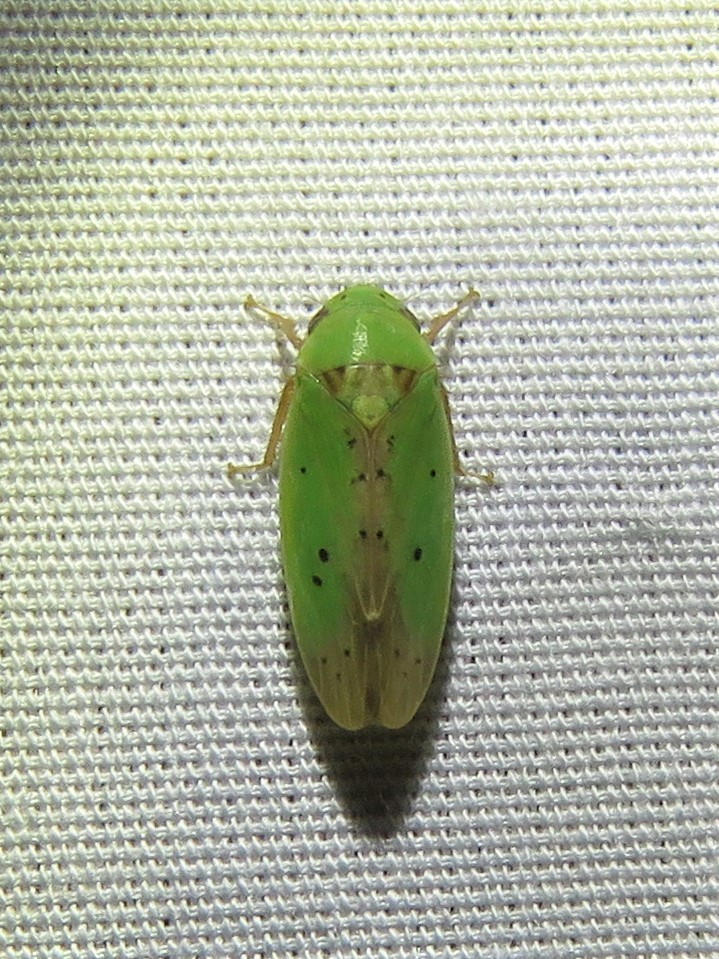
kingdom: Animalia
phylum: Arthropoda
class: Insecta
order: Hemiptera
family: Cicadellidae
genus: Ponana
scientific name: Ponana
